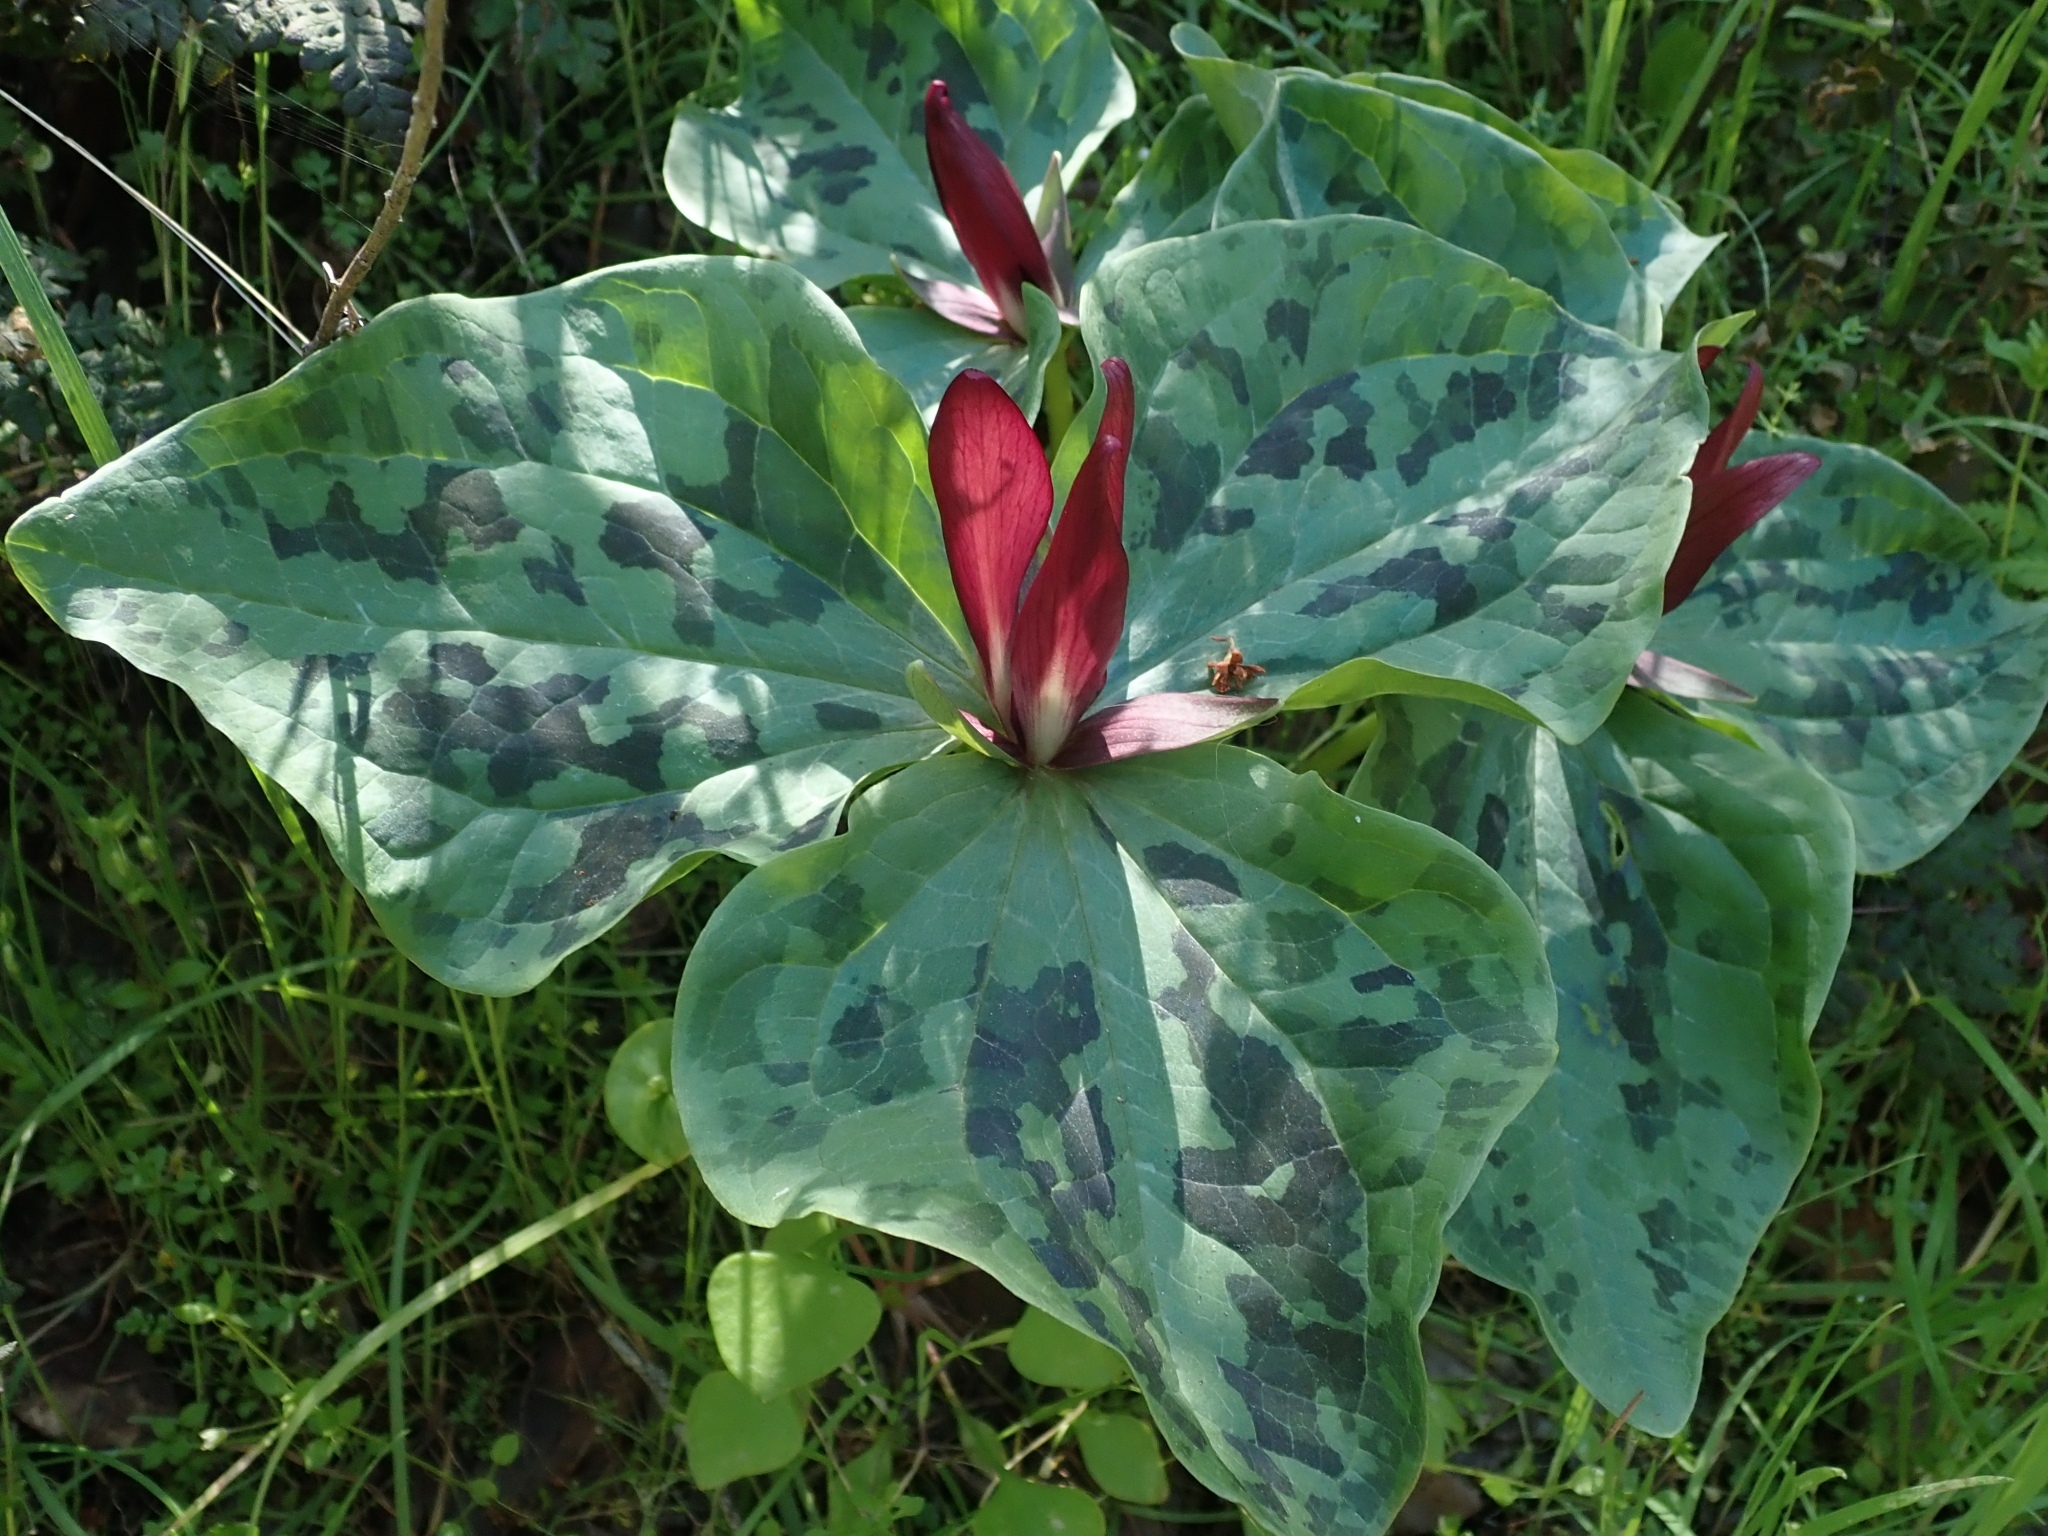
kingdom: Plantae
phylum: Tracheophyta
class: Liliopsida
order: Liliales
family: Melanthiaceae
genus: Trillium
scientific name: Trillium chloropetalum
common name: Giant trillium
